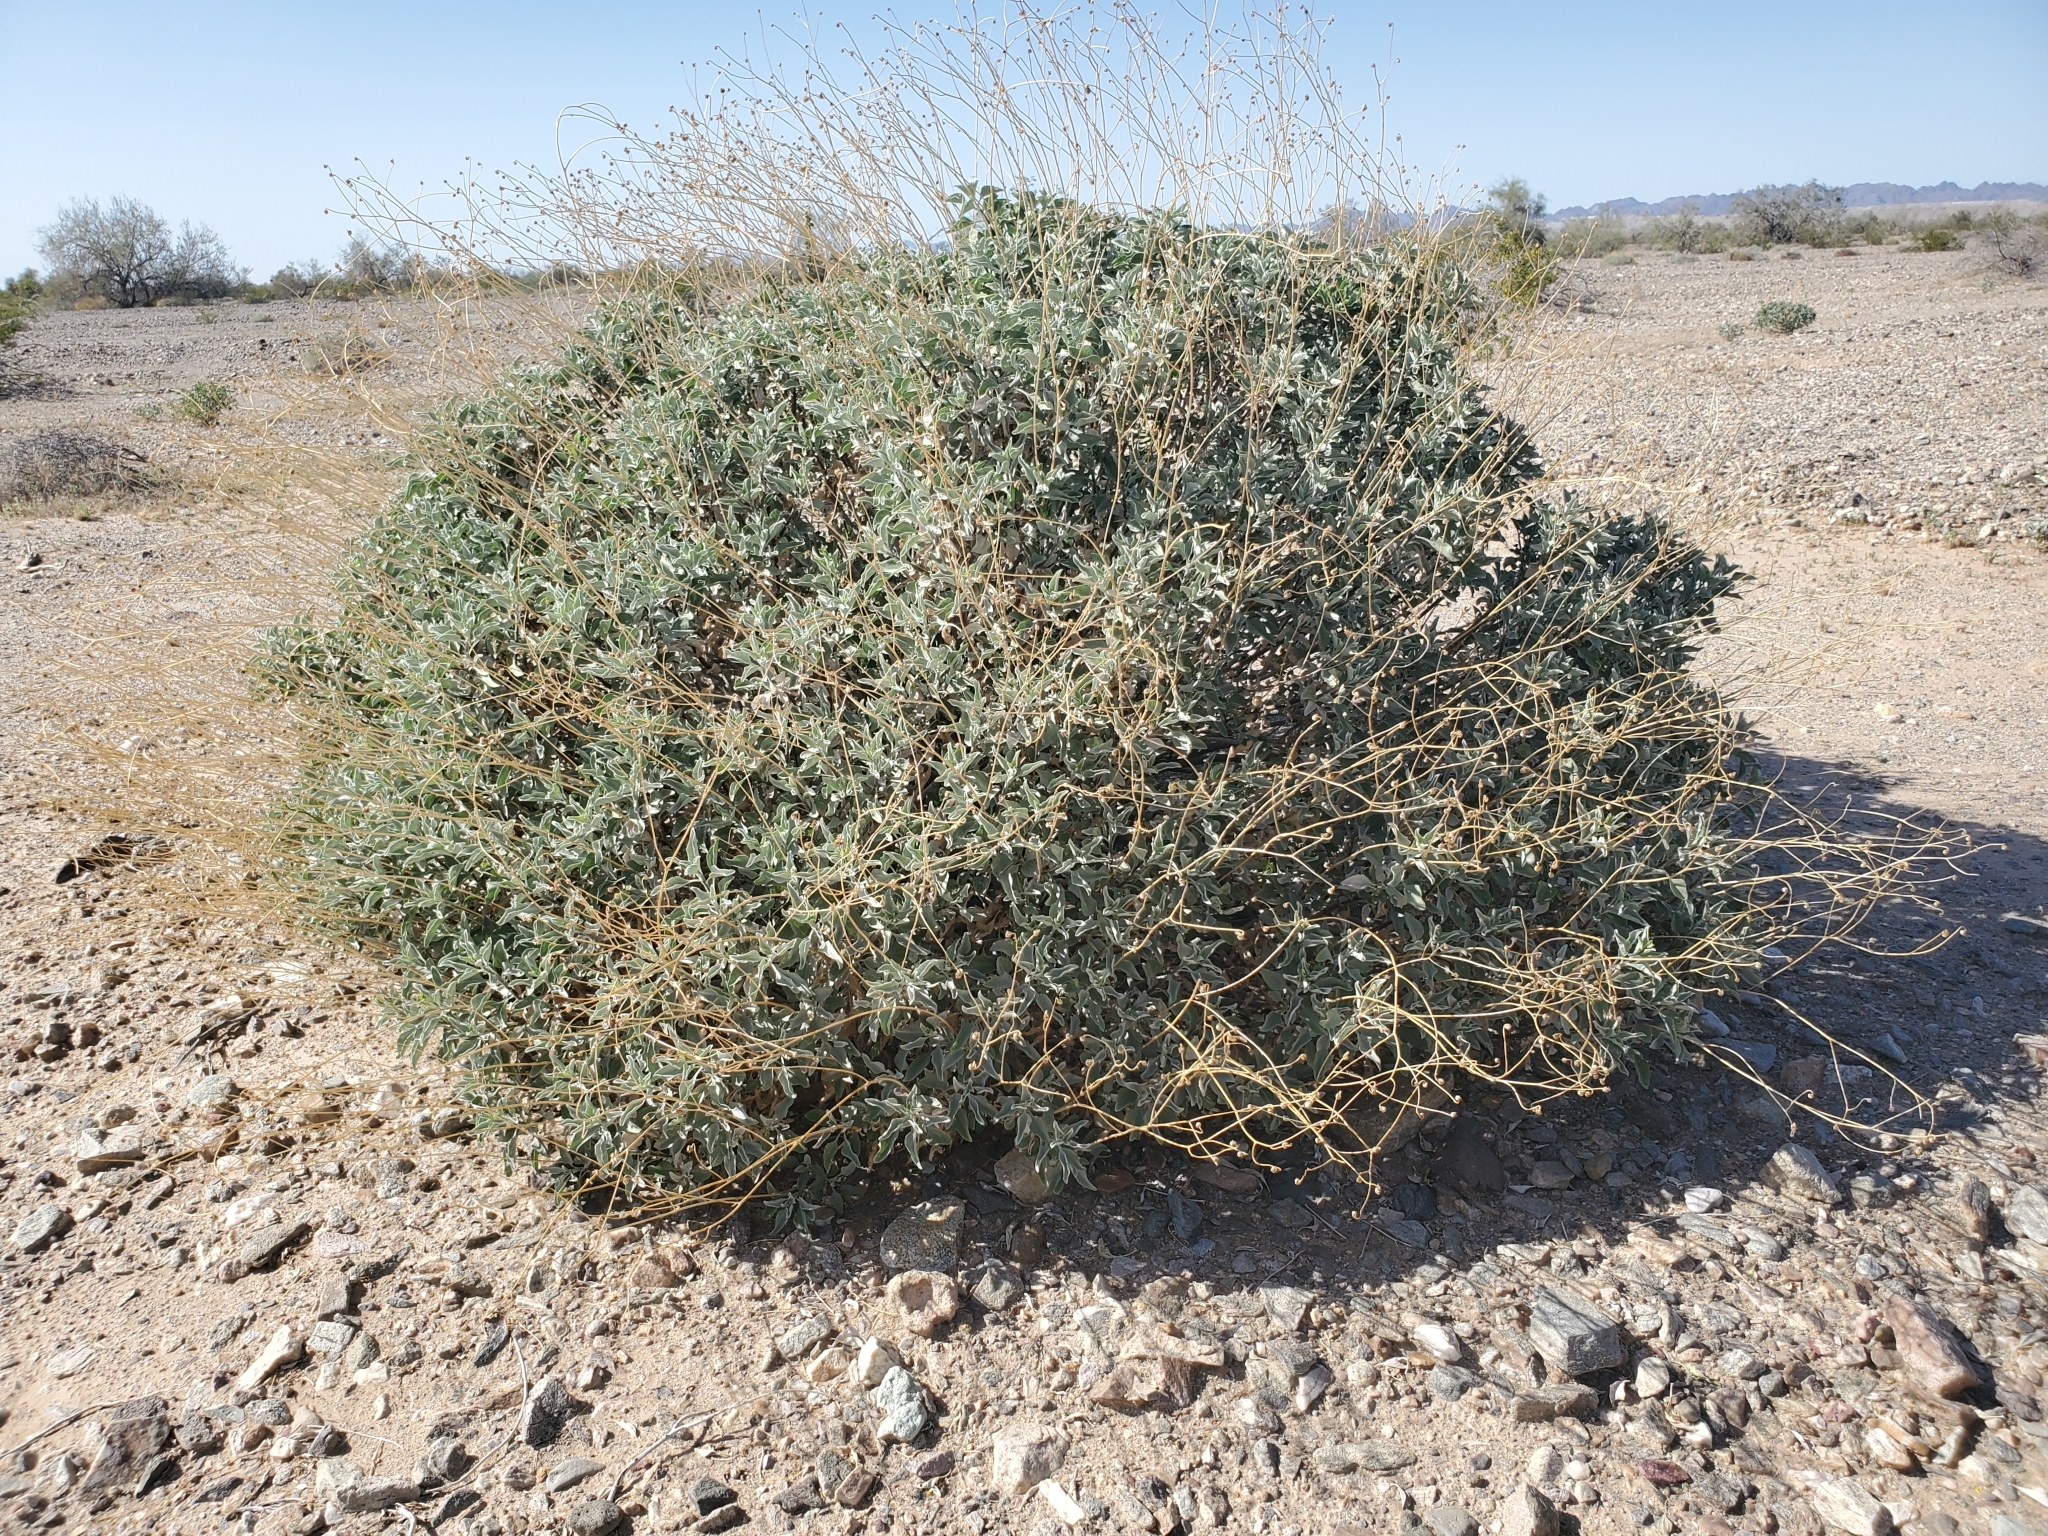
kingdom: Plantae
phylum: Tracheophyta
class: Magnoliopsida
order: Asterales
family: Asteraceae
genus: Encelia
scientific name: Encelia farinosa
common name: Brittlebush
